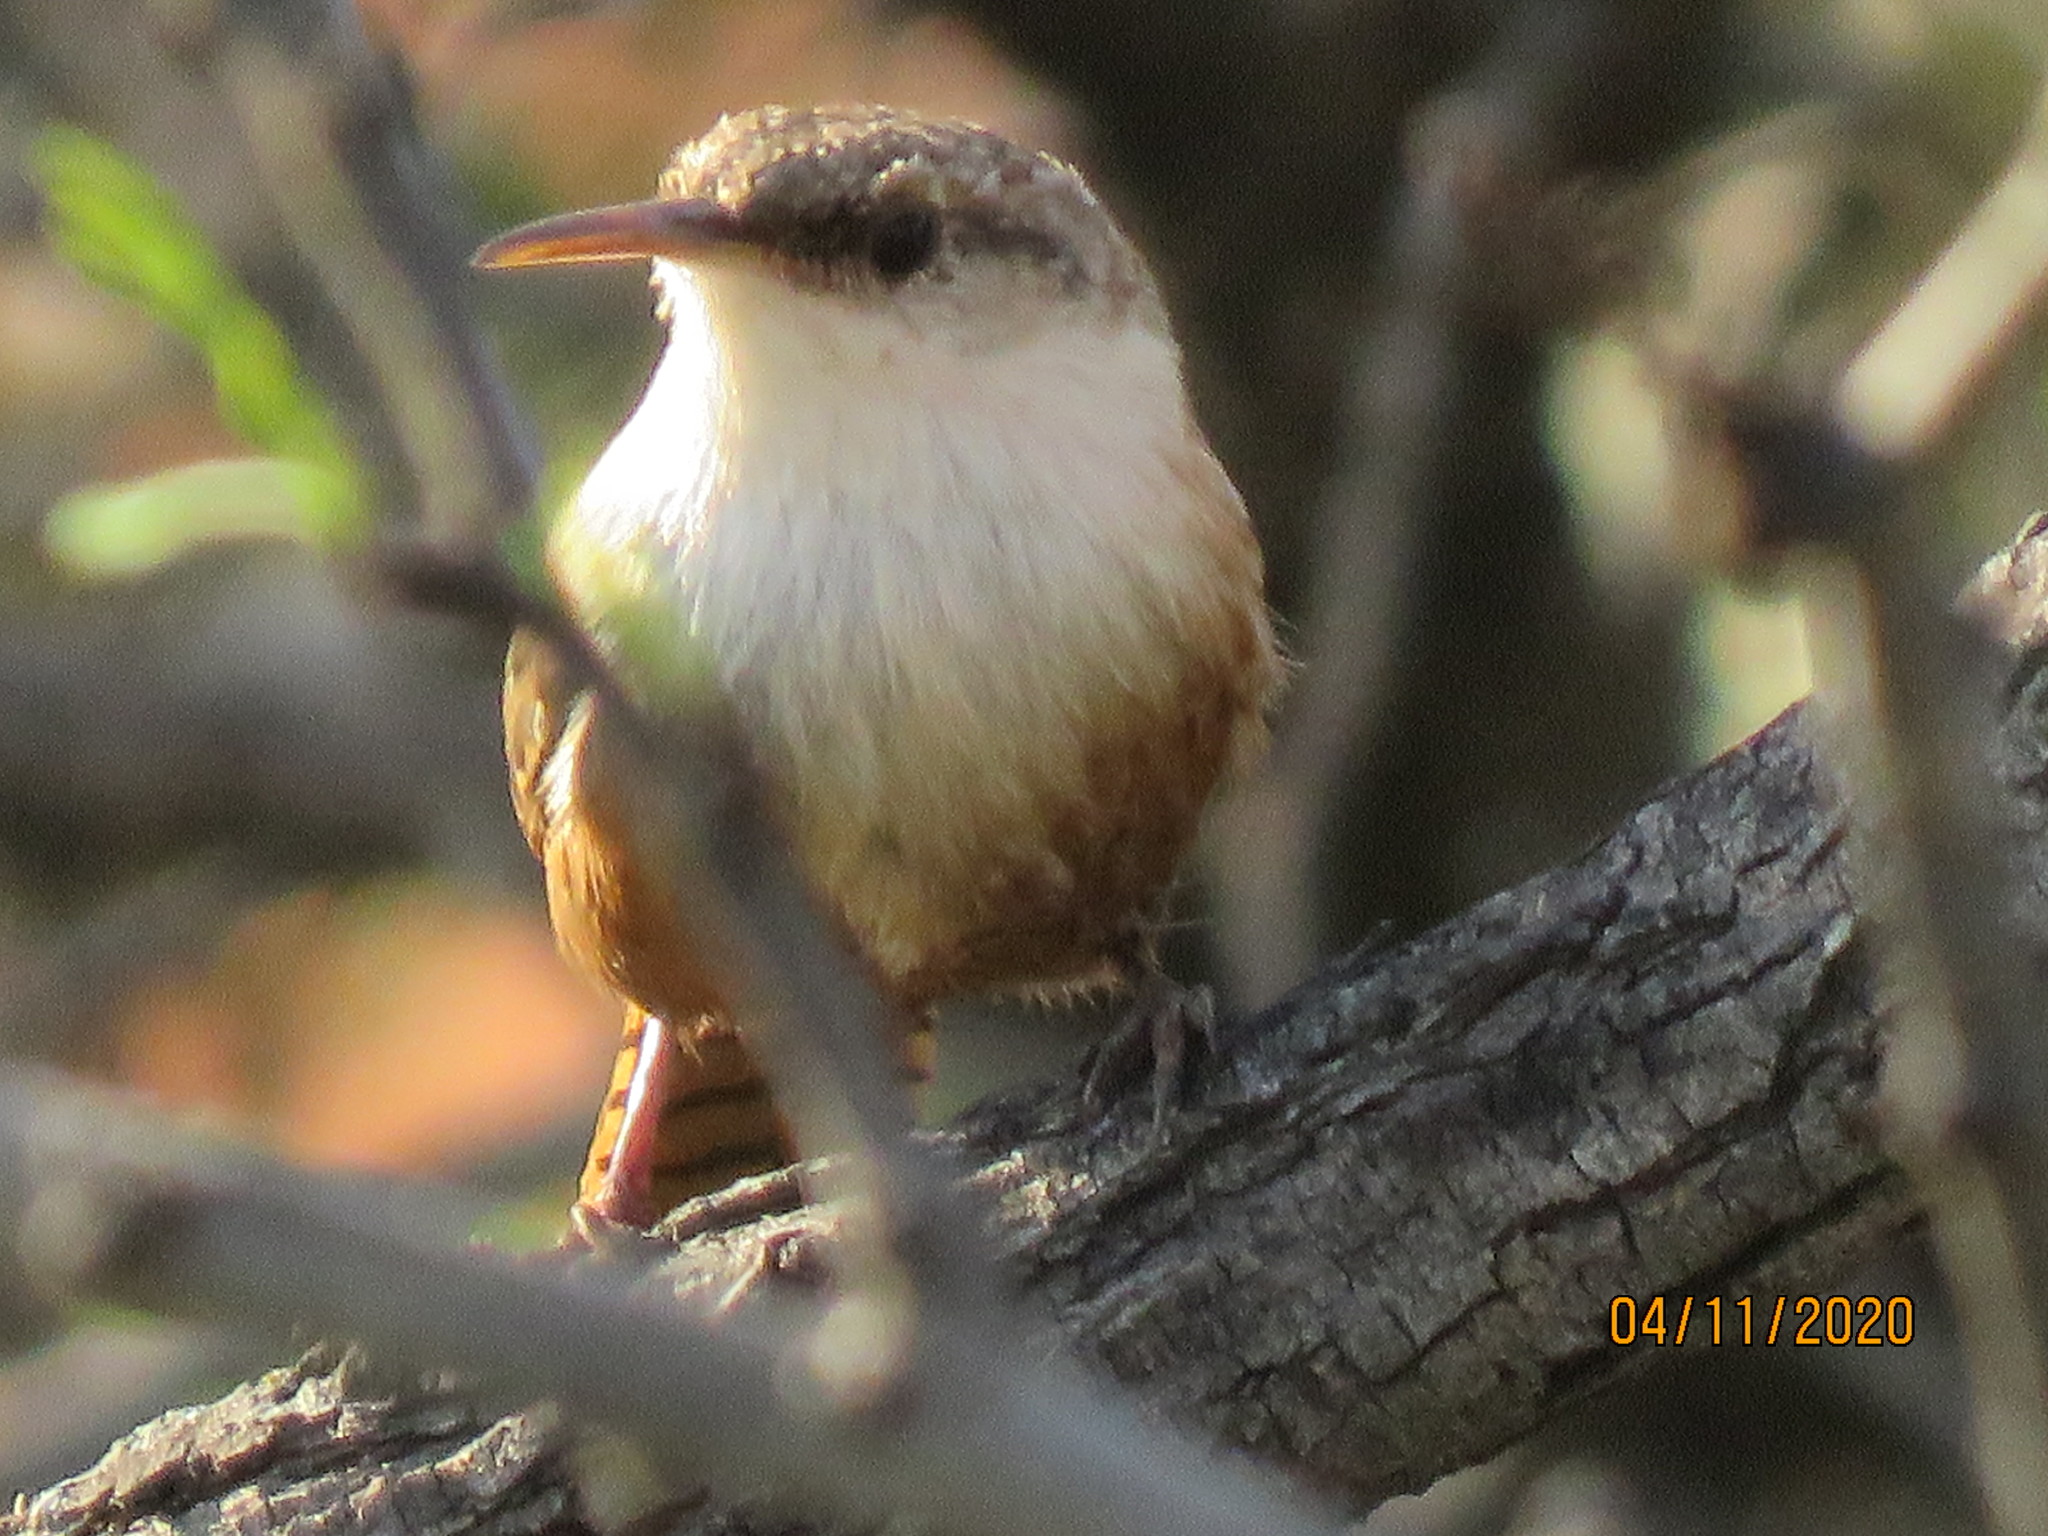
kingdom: Animalia
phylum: Chordata
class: Aves
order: Passeriformes
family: Troglodytidae
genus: Catherpes
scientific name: Catherpes mexicanus
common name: Canyon wren
